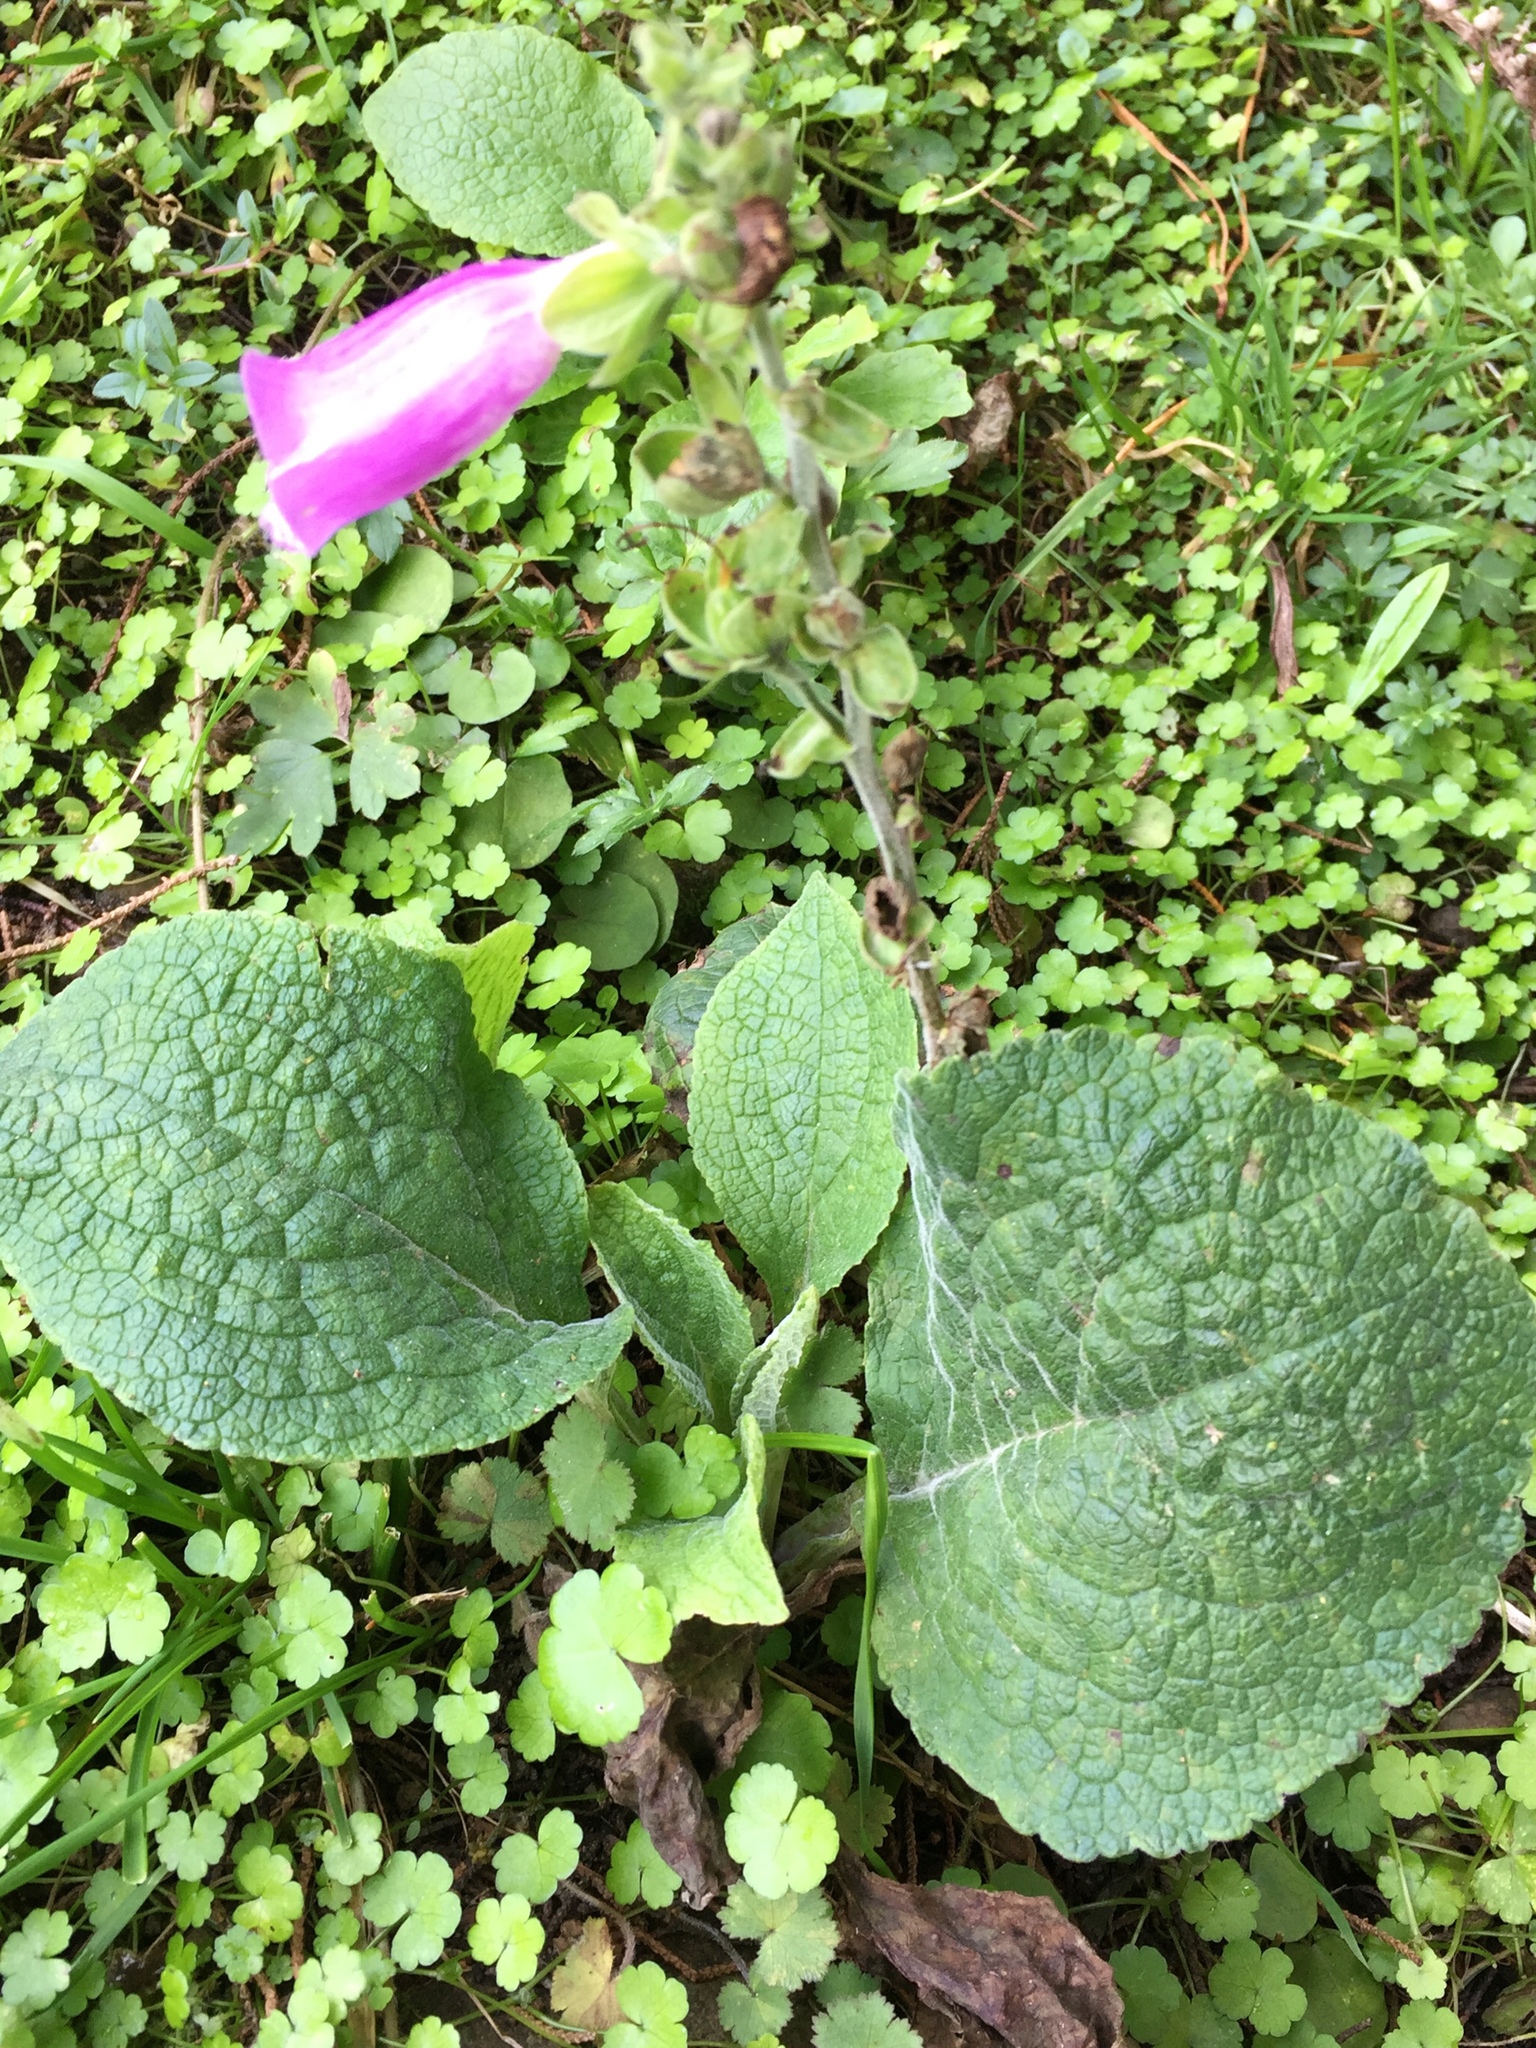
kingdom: Plantae
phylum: Tracheophyta
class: Magnoliopsida
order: Lamiales
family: Plantaginaceae
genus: Digitalis
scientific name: Digitalis purpurea
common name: Foxglove
